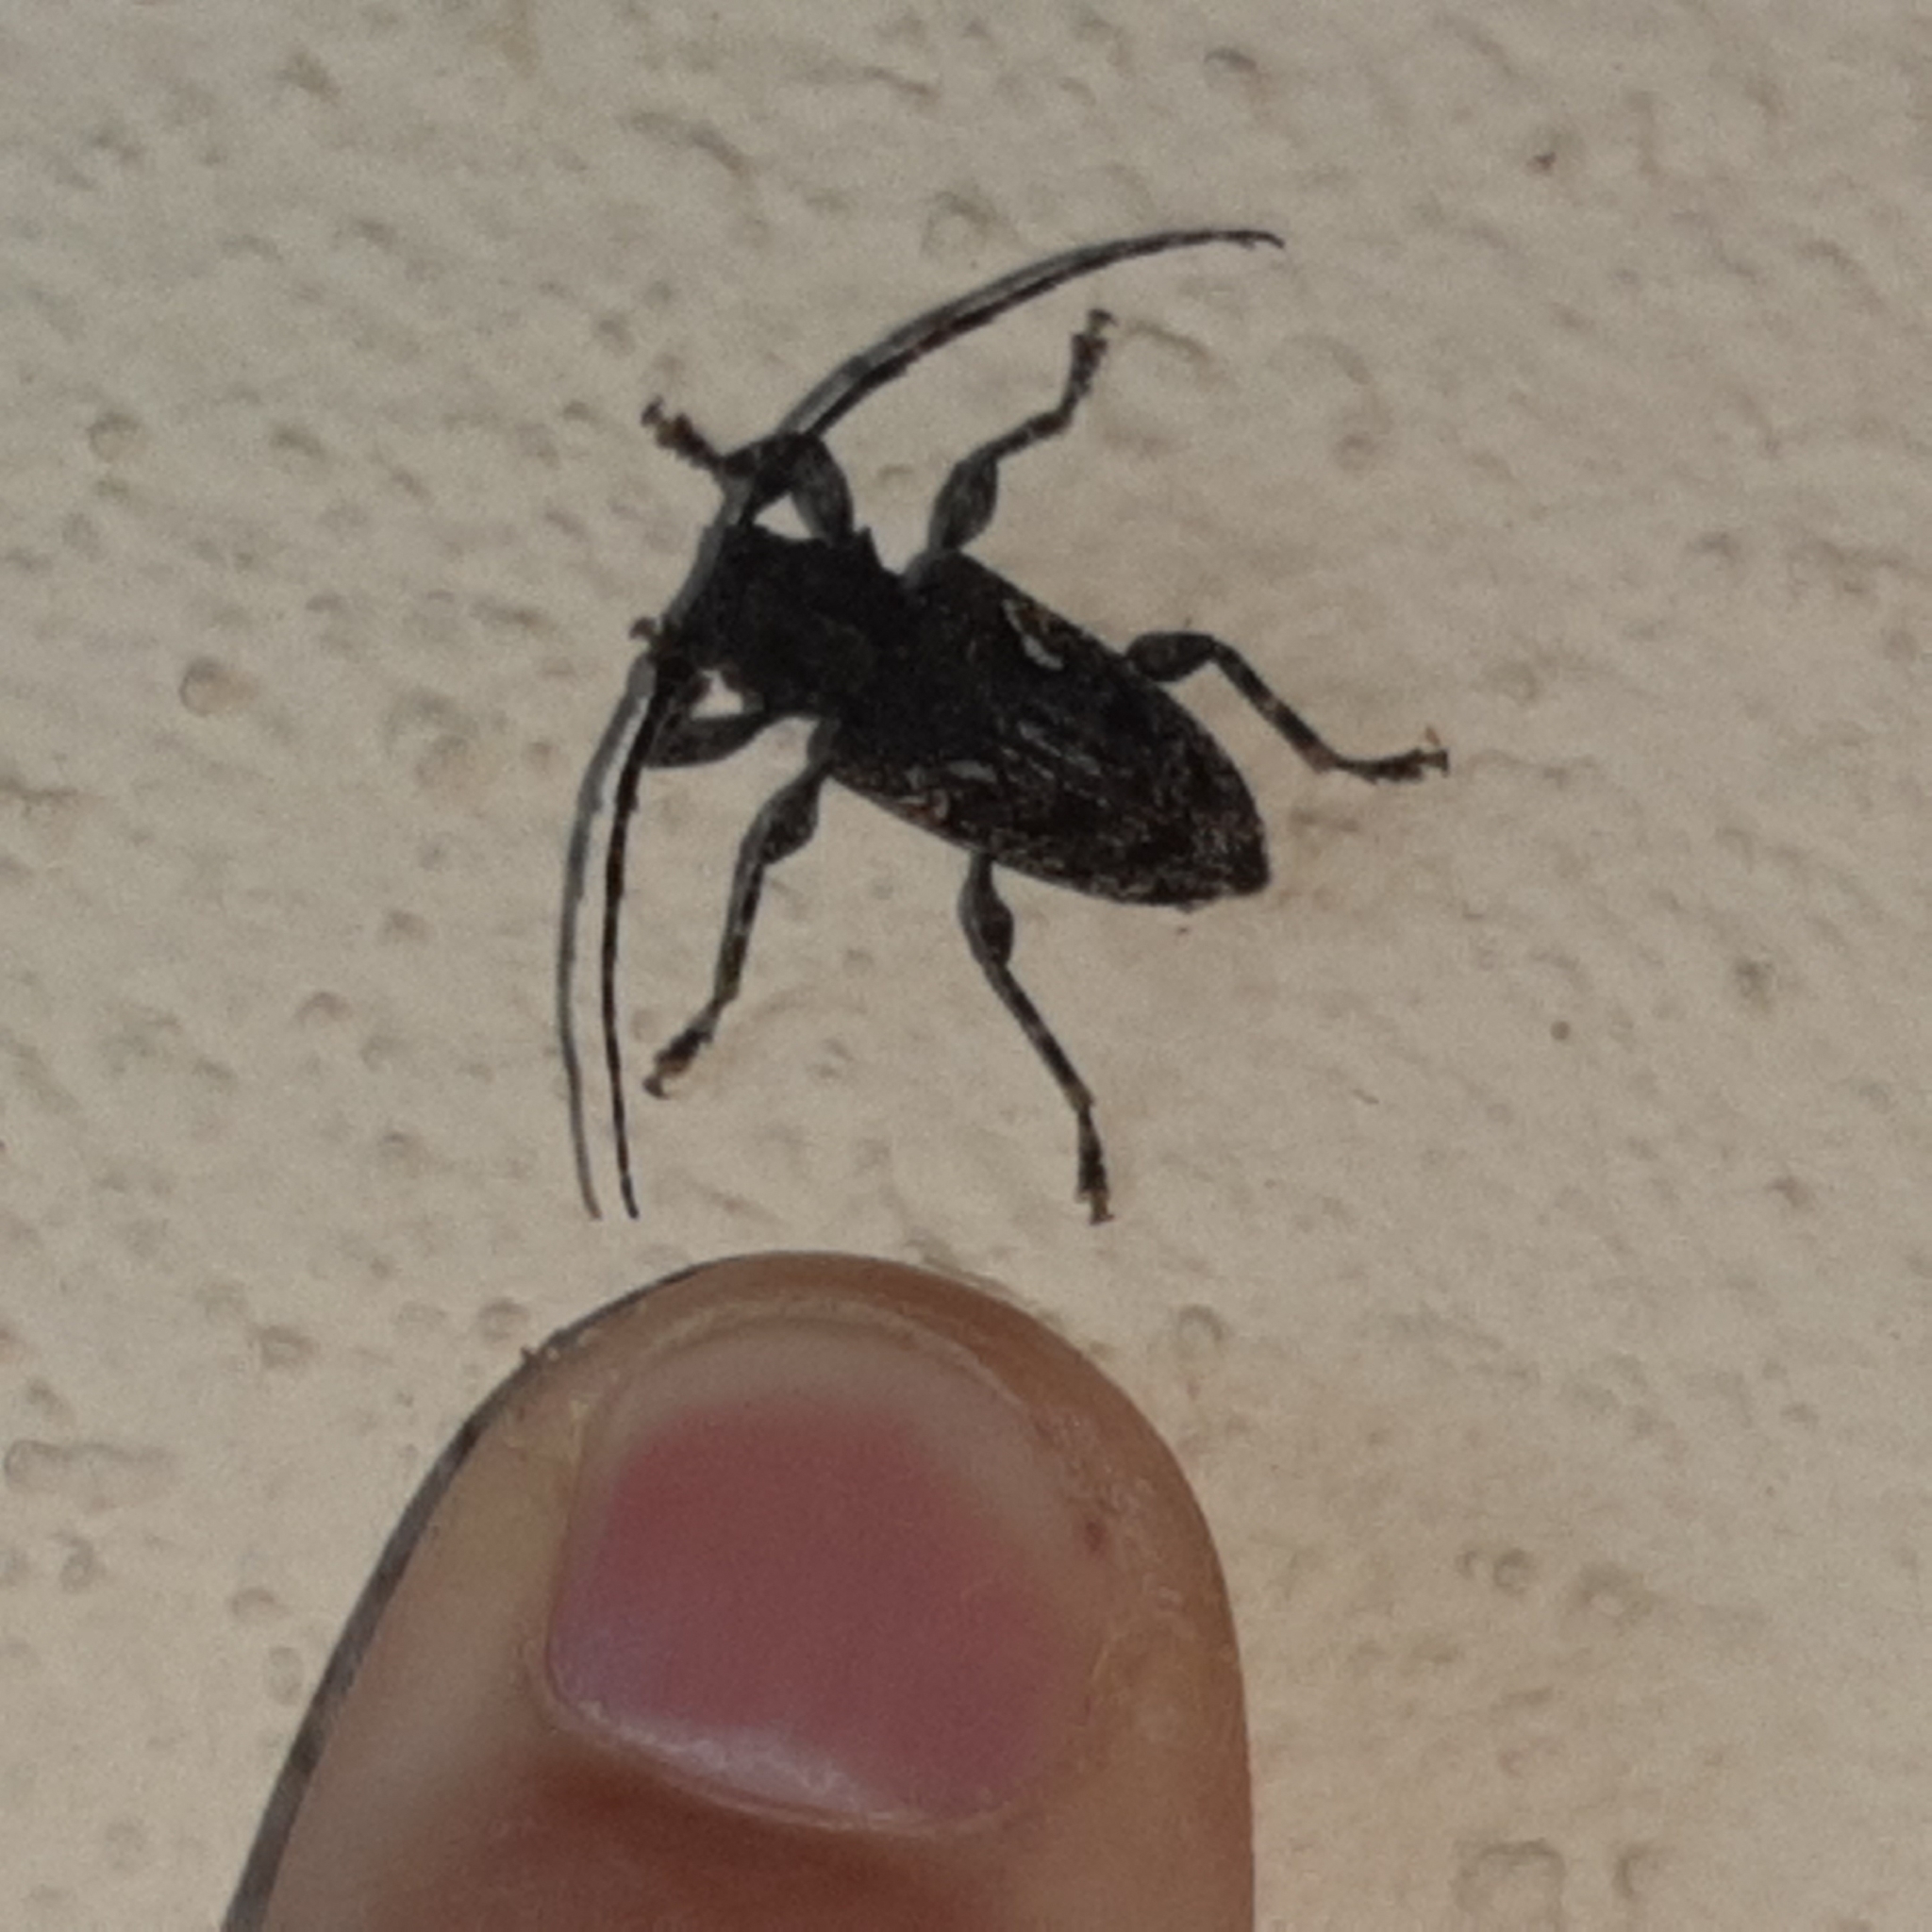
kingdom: Animalia
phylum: Arthropoda
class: Insecta
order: Coleoptera
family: Cerambycidae
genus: Psapharochrus
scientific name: Psapharochrus circumflexus
